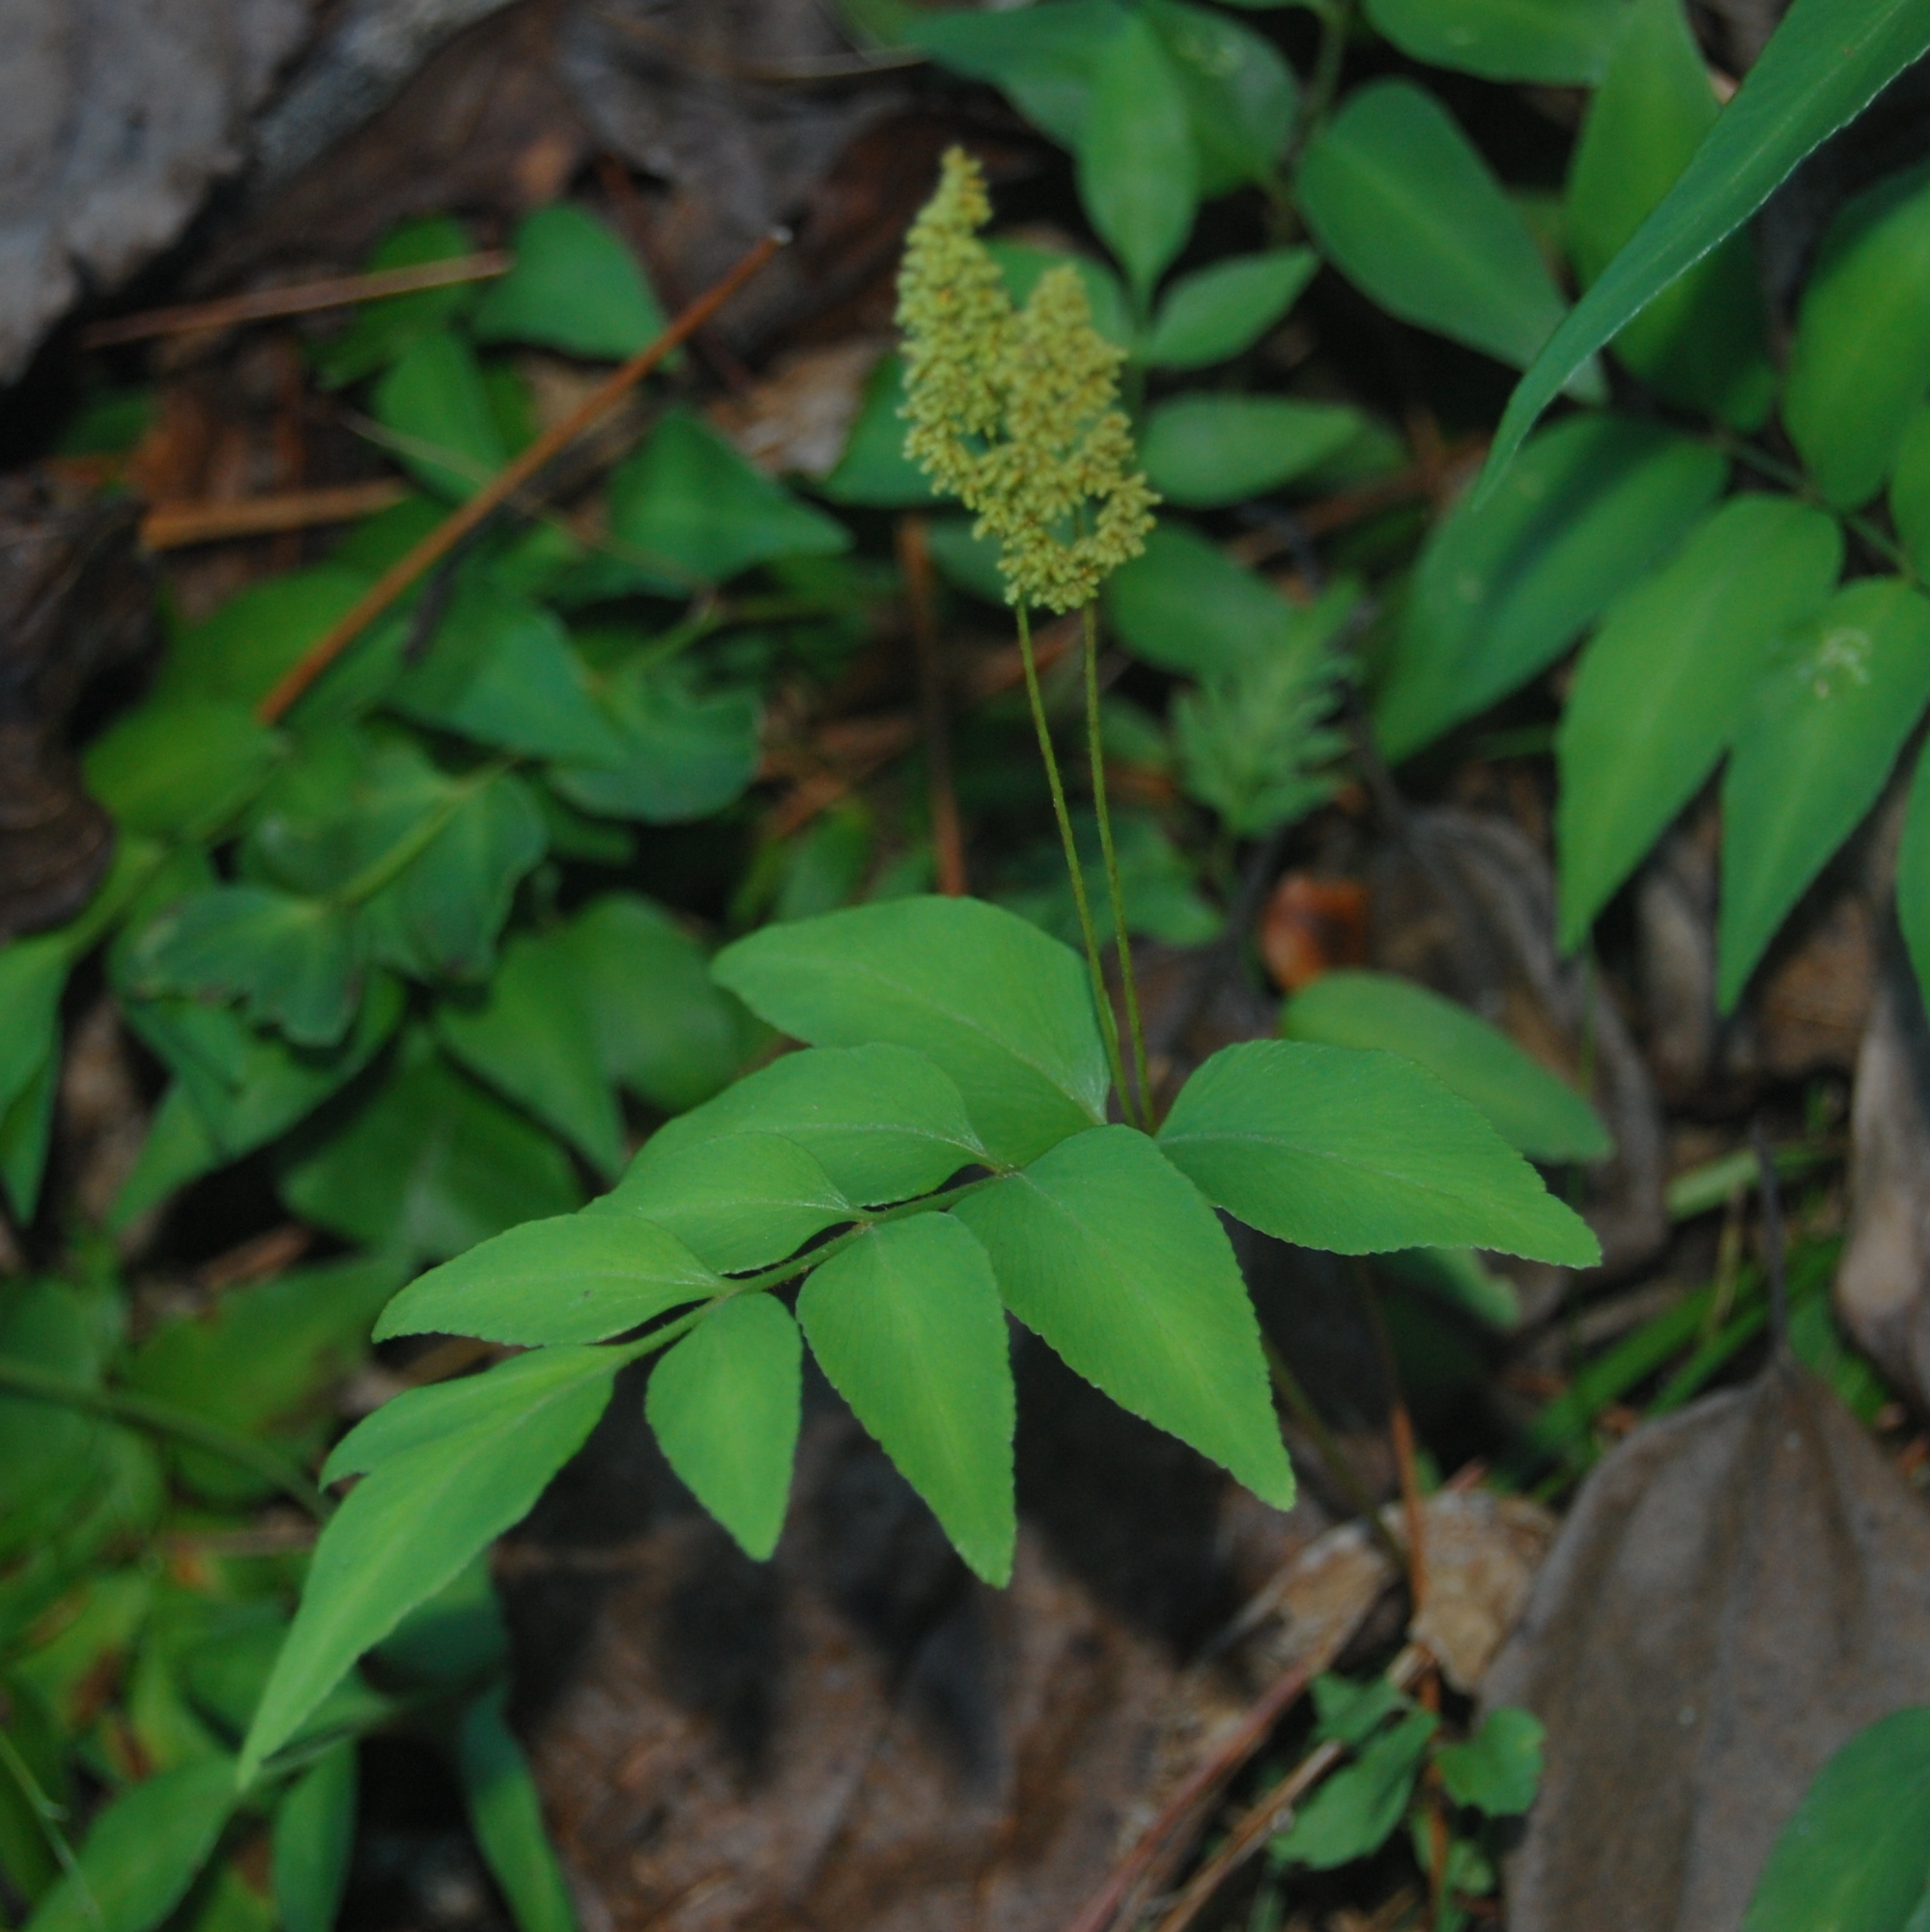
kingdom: Plantae
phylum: Tracheophyta
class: Polypodiopsida
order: Schizaeales
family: Anemiaceae
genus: Anemia
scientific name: Anemia phyllitidis
